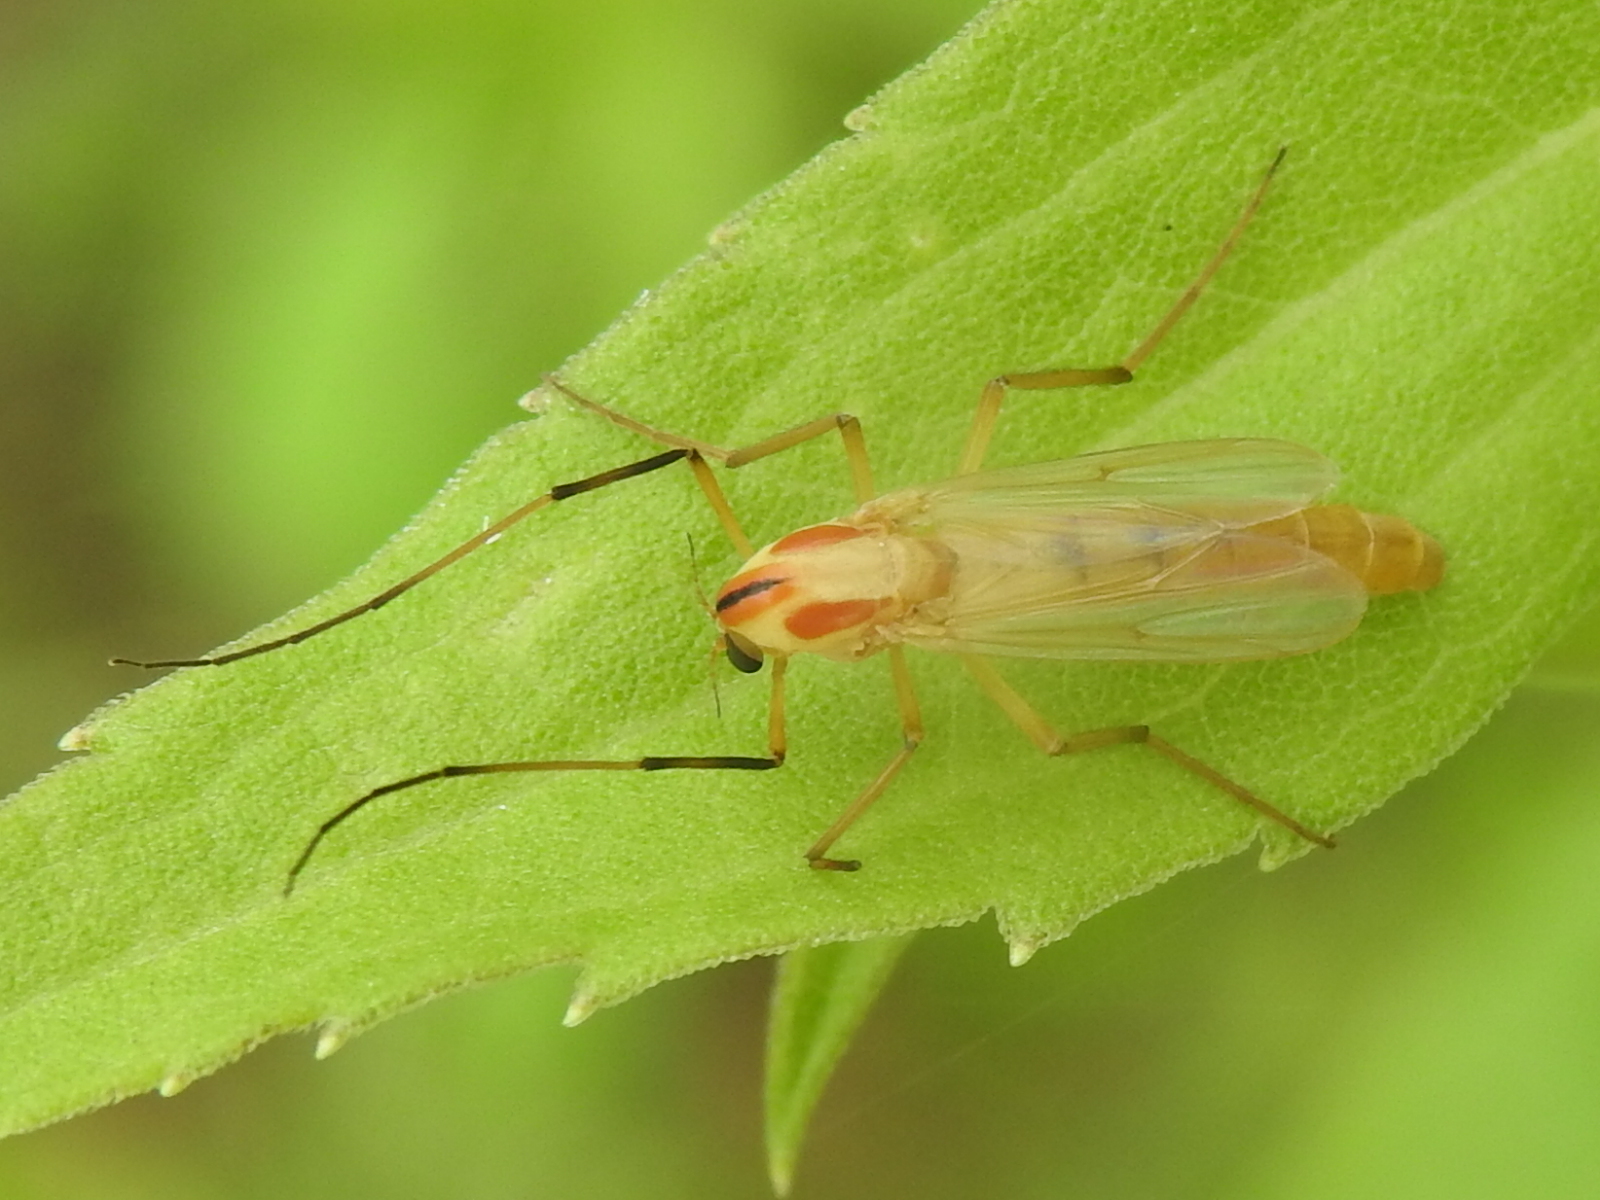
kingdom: Animalia
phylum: Arthropoda
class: Insecta
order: Diptera
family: Chironomidae
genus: Axarus
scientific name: Axarus
